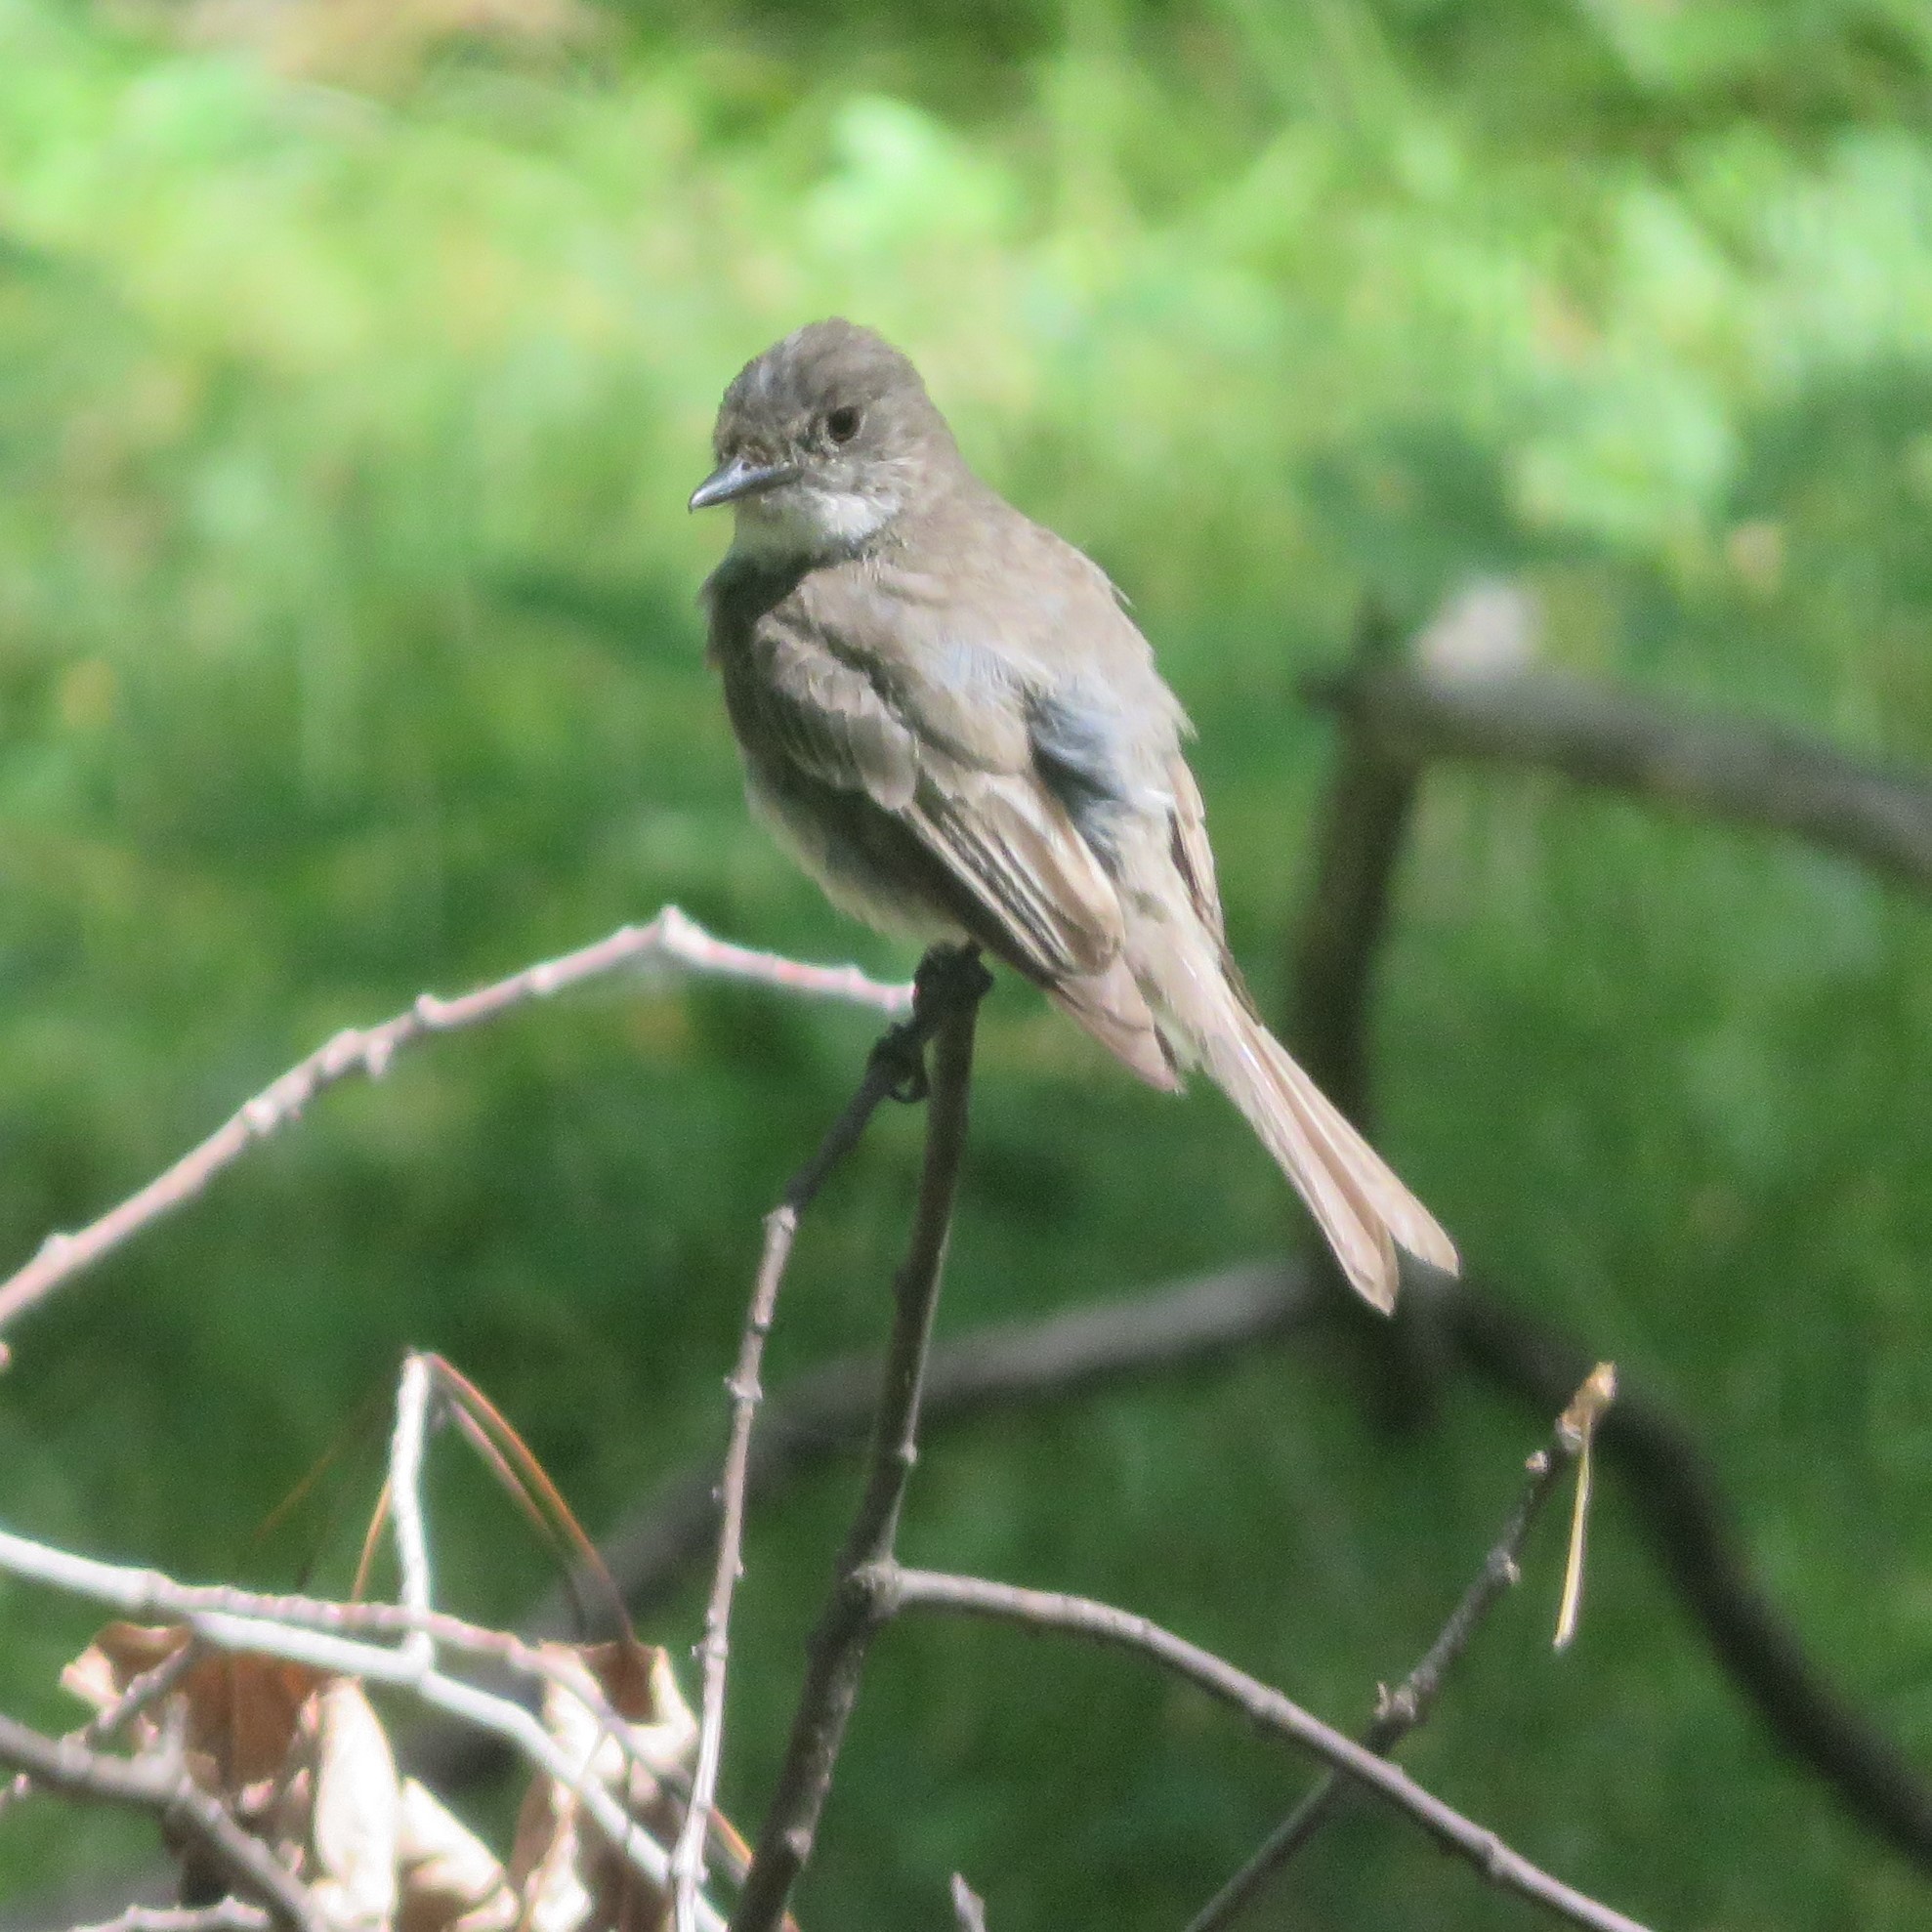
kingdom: Animalia
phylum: Chordata
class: Aves
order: Passeriformes
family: Tyrannidae
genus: Sayornis
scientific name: Sayornis phoebe
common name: Eastern phoebe
